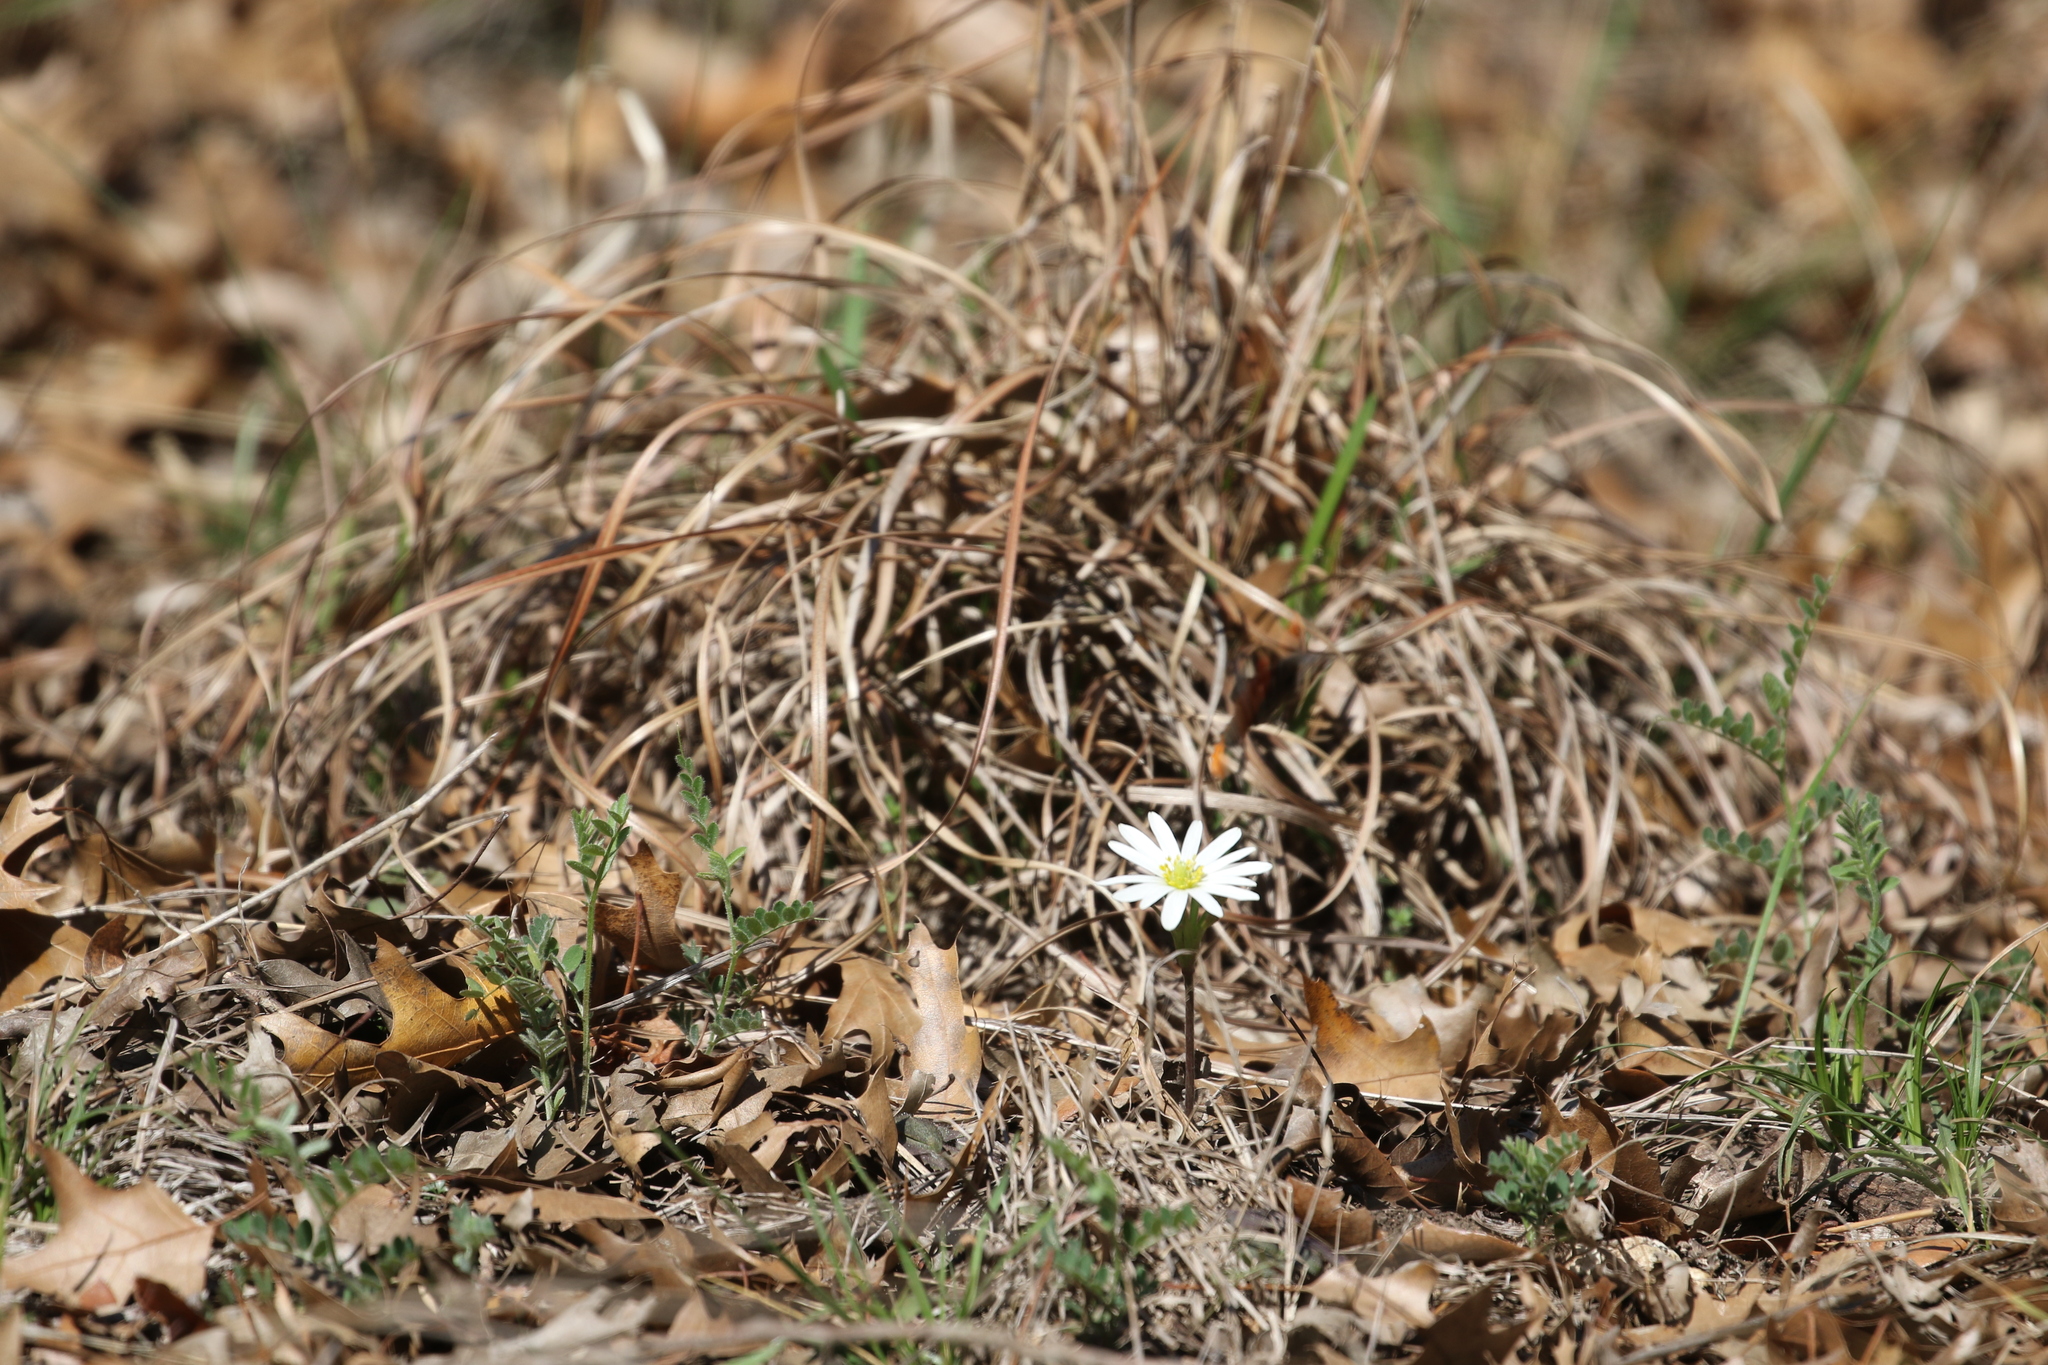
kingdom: Plantae
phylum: Tracheophyta
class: Magnoliopsida
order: Ranunculales
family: Ranunculaceae
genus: Anemone
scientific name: Anemone berlandieri
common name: Ten-petal anemone
